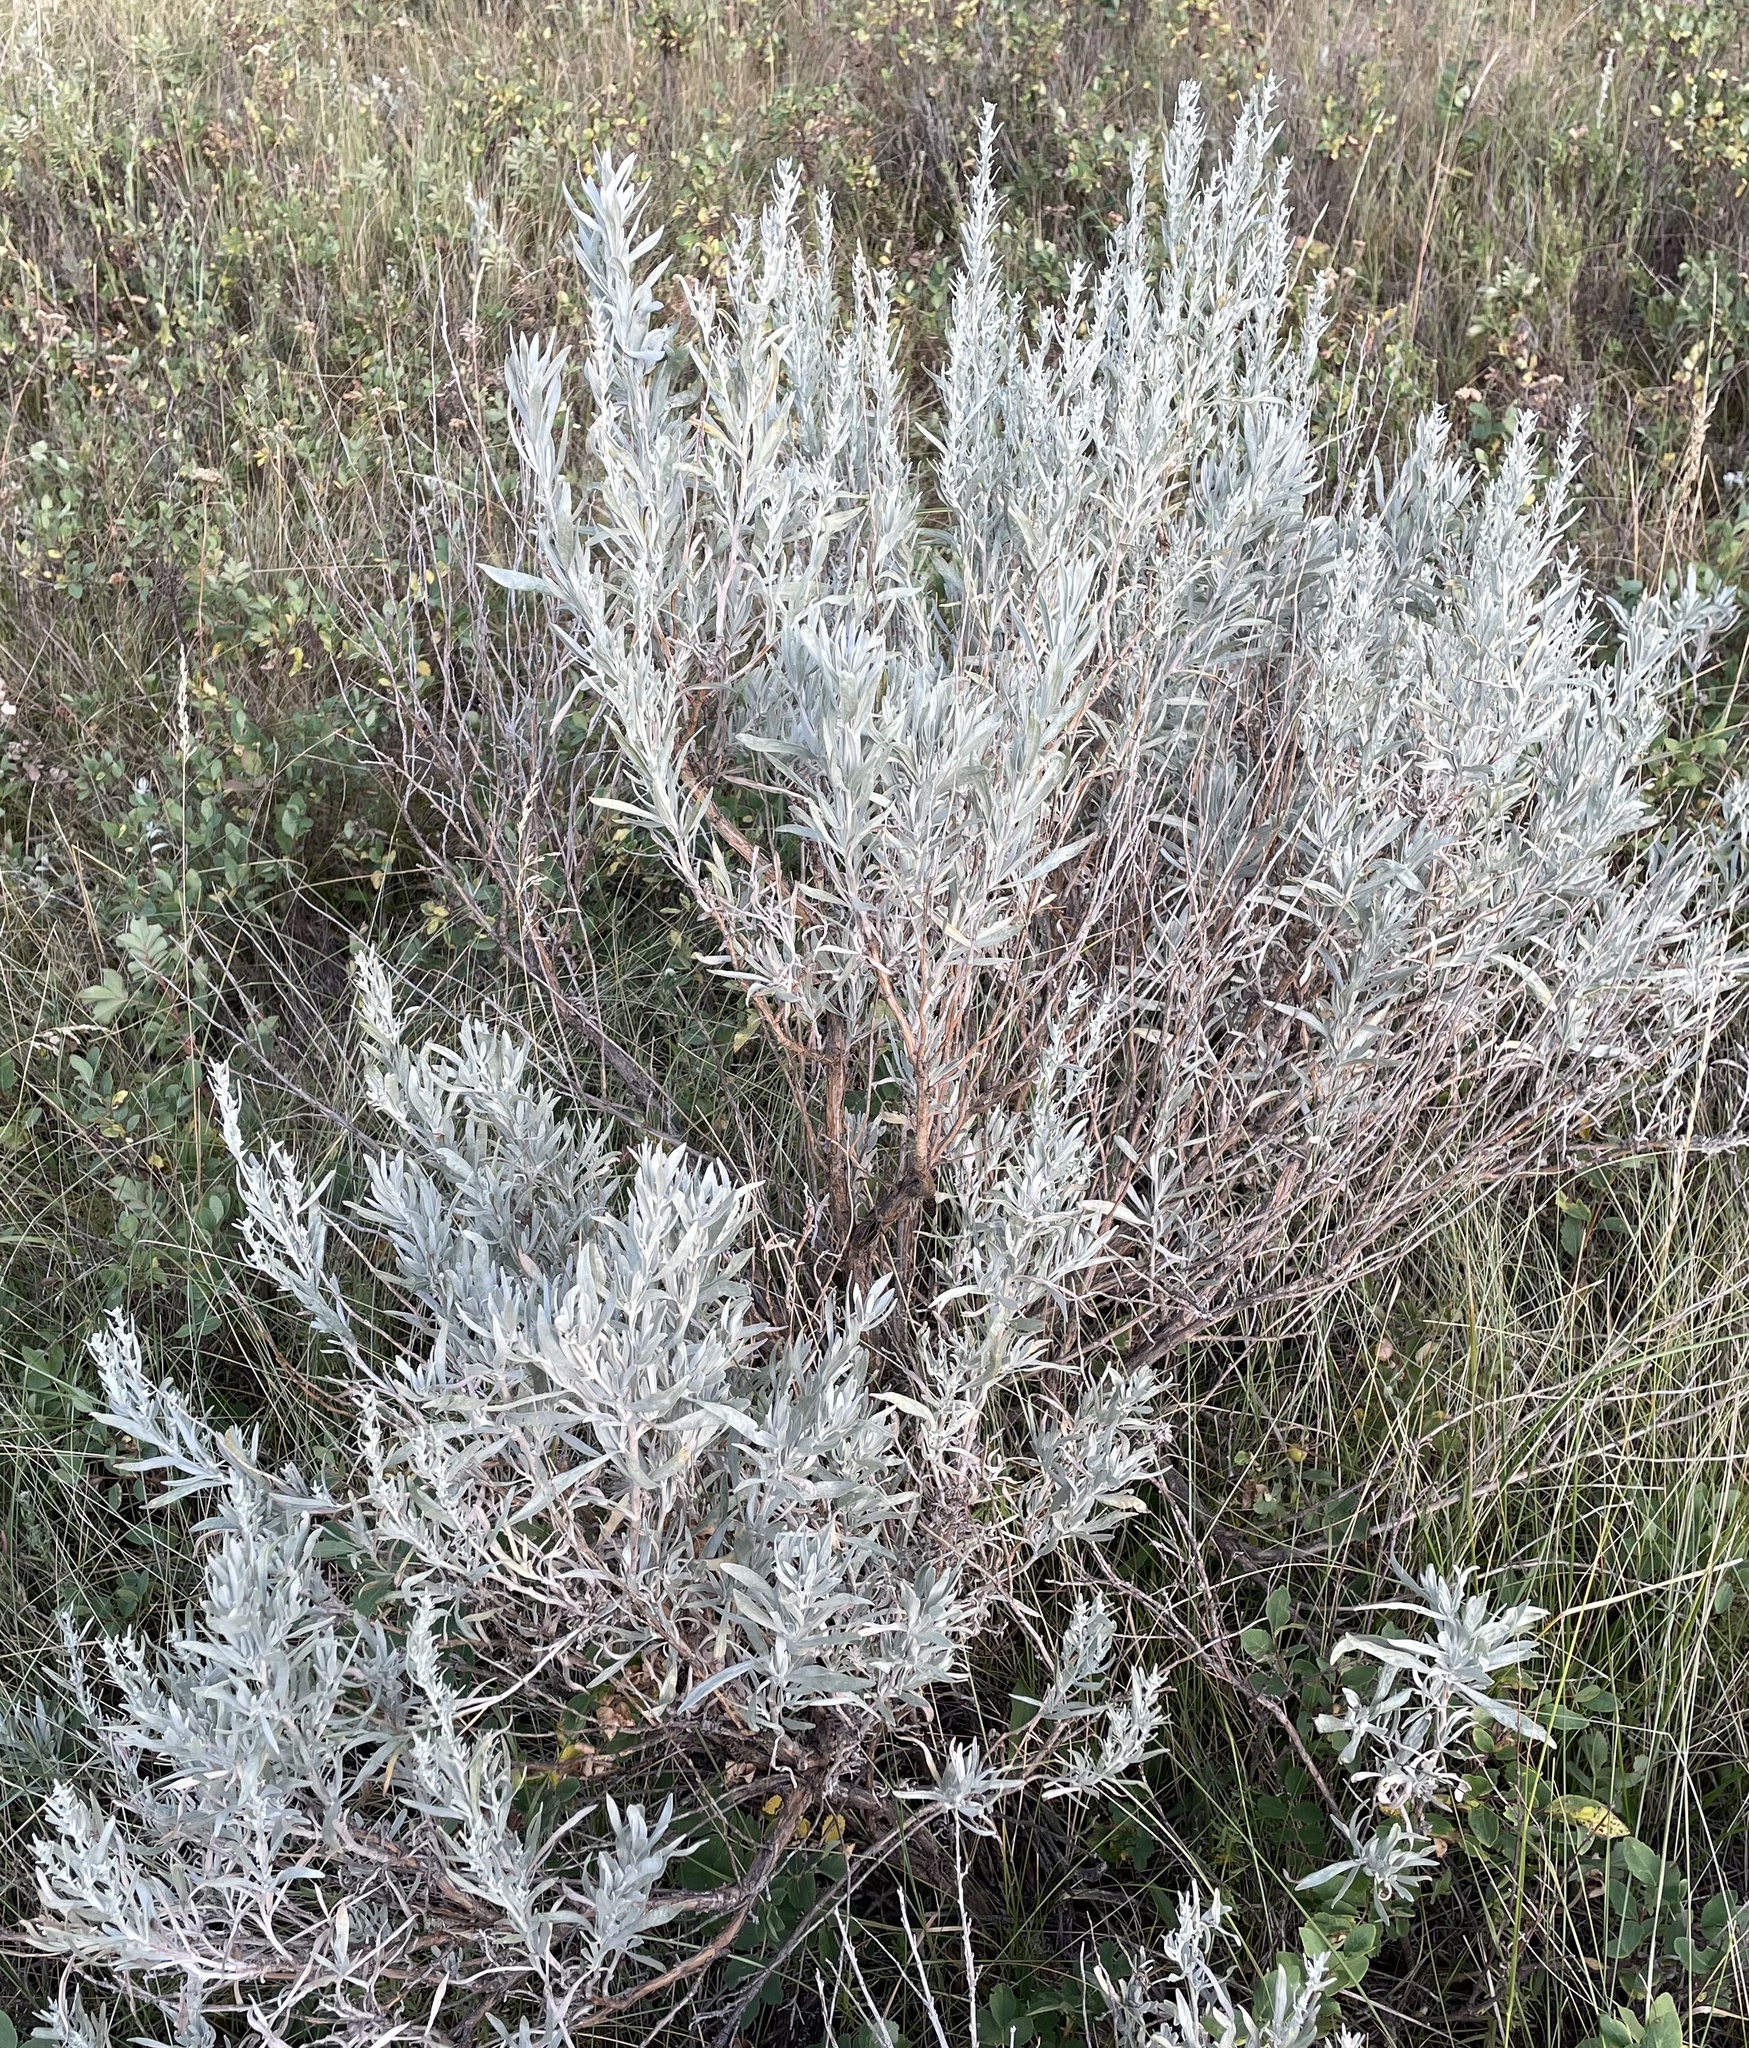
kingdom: Plantae
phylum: Tracheophyta
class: Magnoliopsida
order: Asterales
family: Asteraceae
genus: Artemisia
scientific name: Artemisia cana
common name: Silver sagebrush
